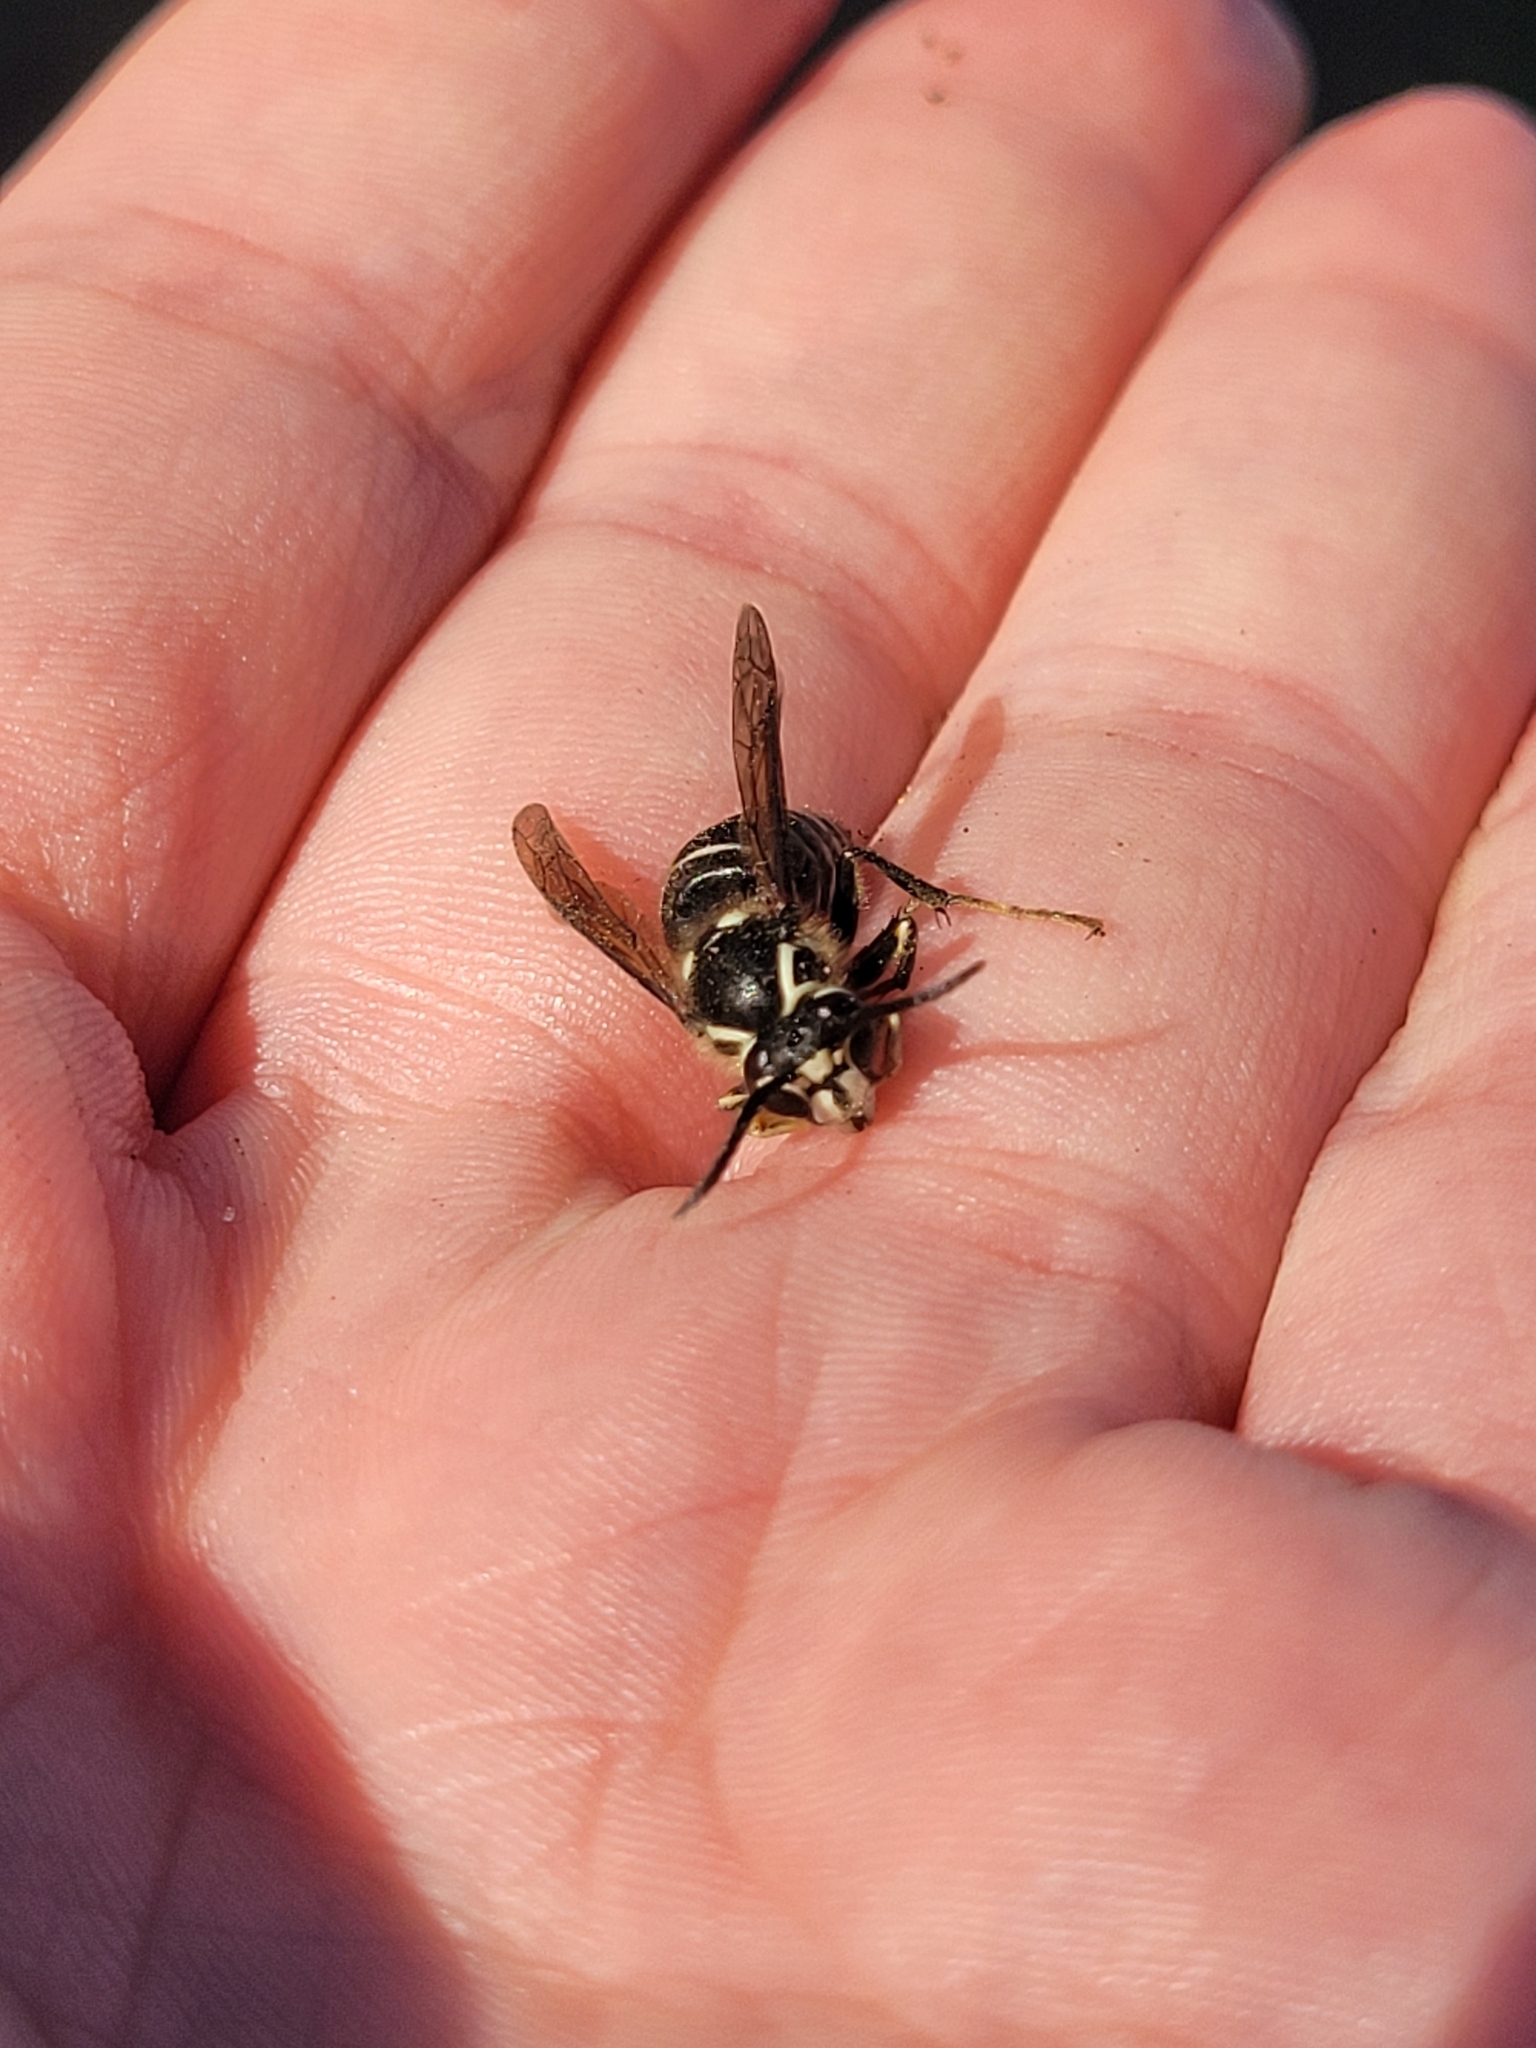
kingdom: Animalia
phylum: Arthropoda
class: Insecta
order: Hymenoptera
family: Vespidae
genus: Dolichovespula
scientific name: Dolichovespula maculata
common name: Bald-faced hornet
